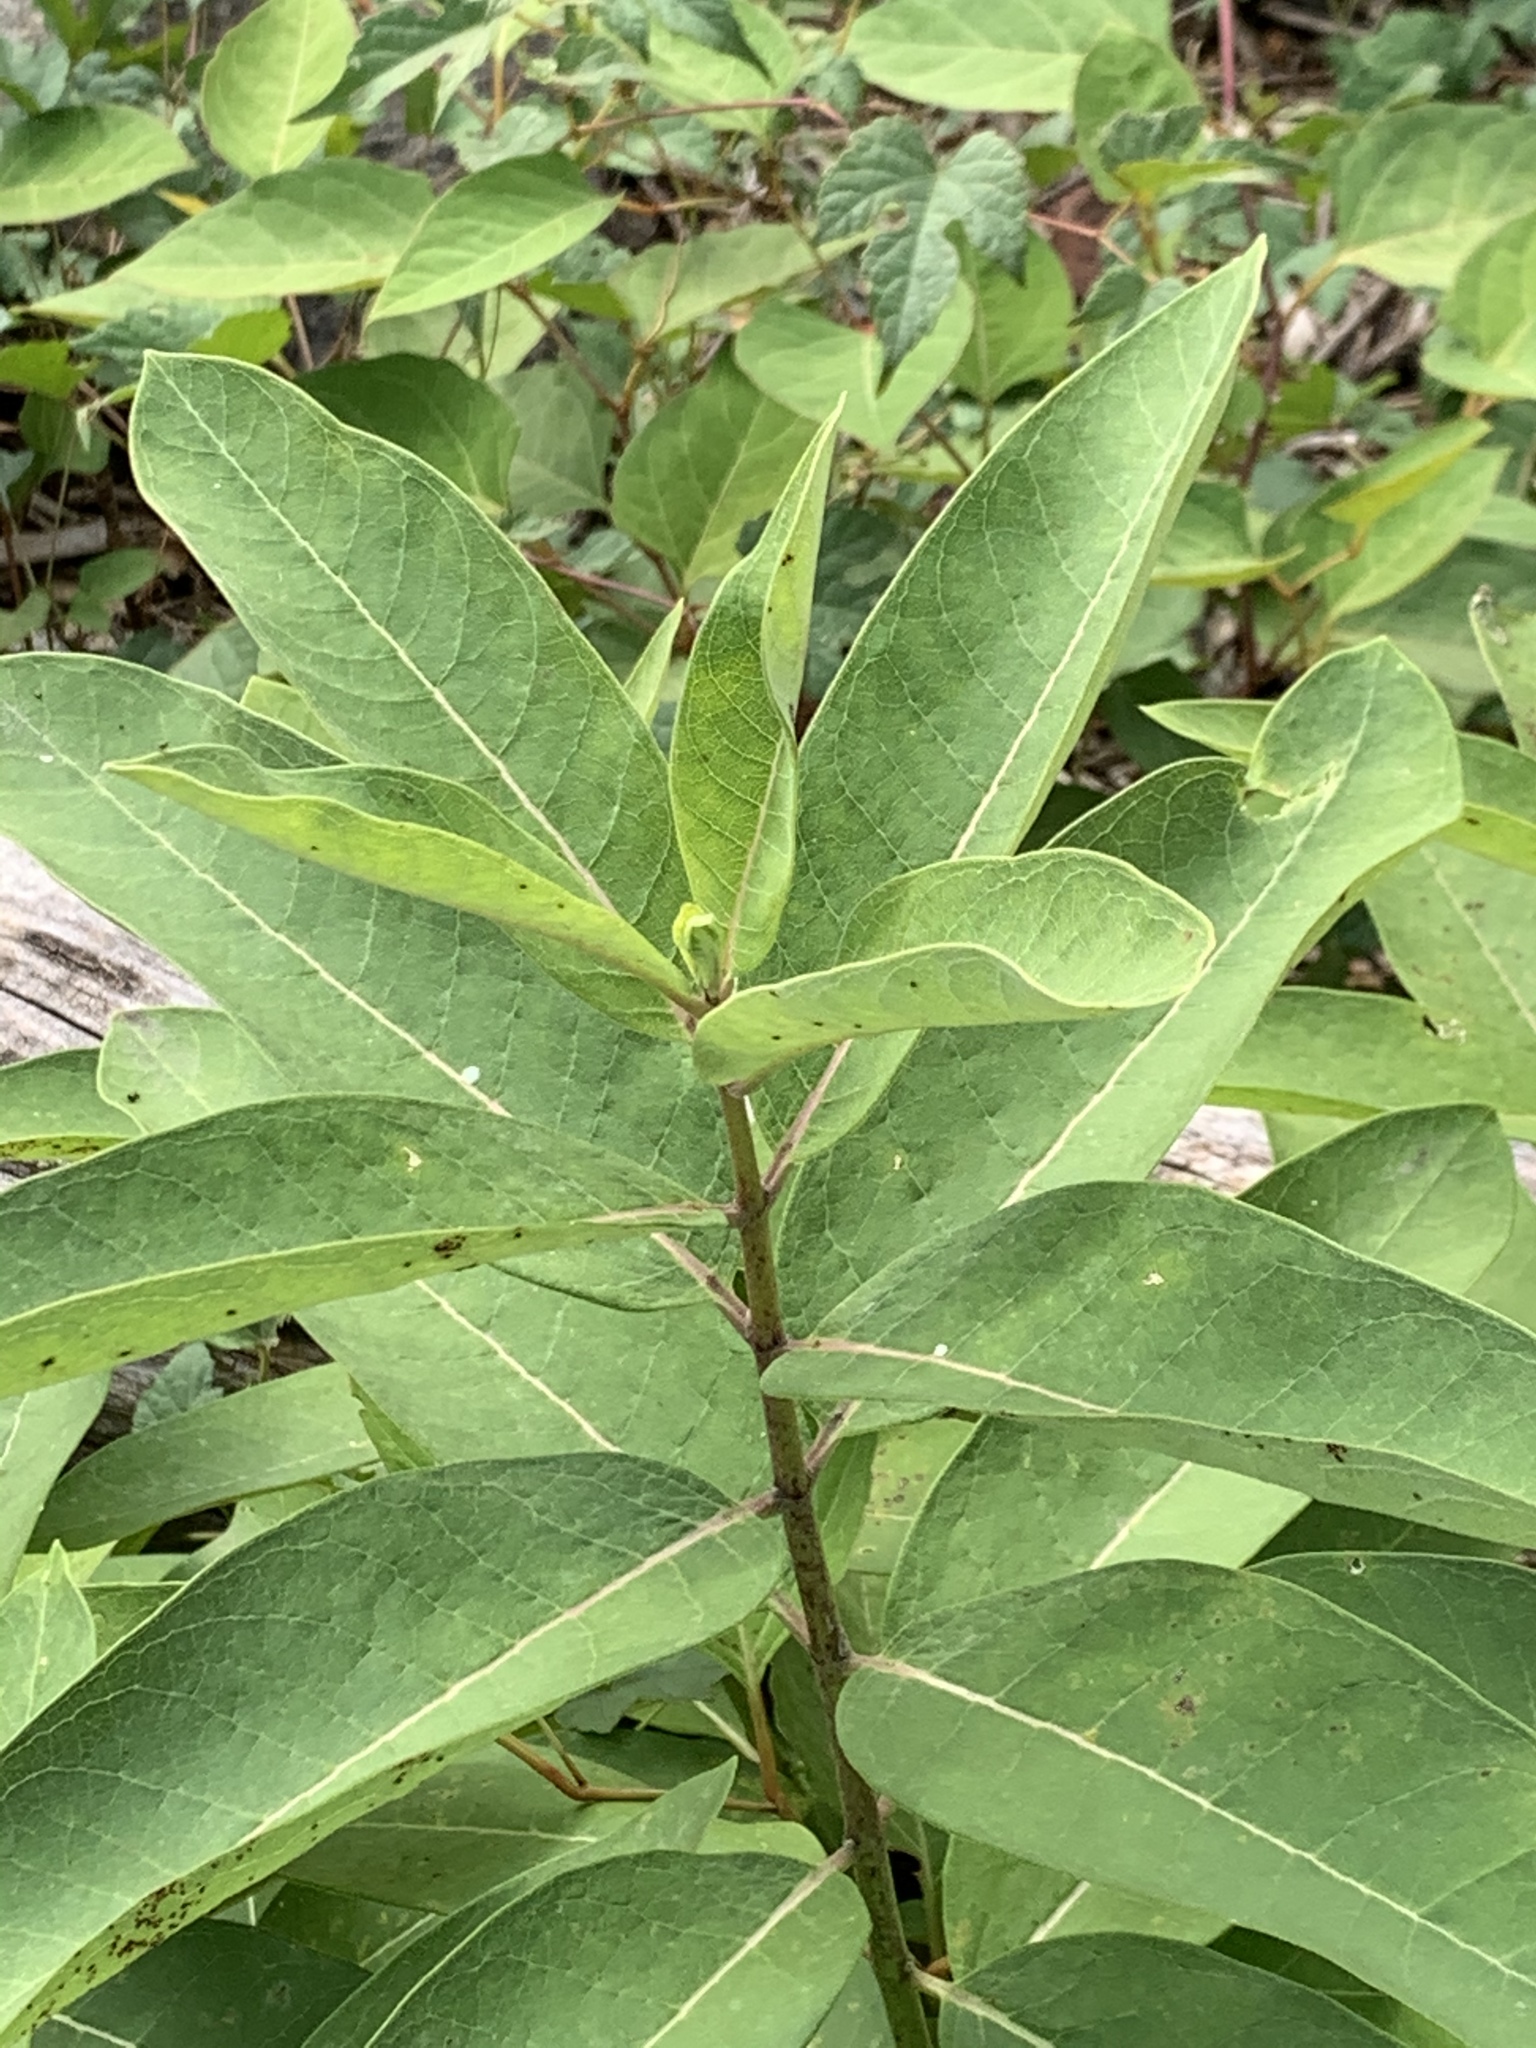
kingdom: Plantae
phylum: Tracheophyta
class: Magnoliopsida
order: Gentianales
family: Apocynaceae
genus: Asclepias
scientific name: Asclepias syriaca
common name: Common milkweed
